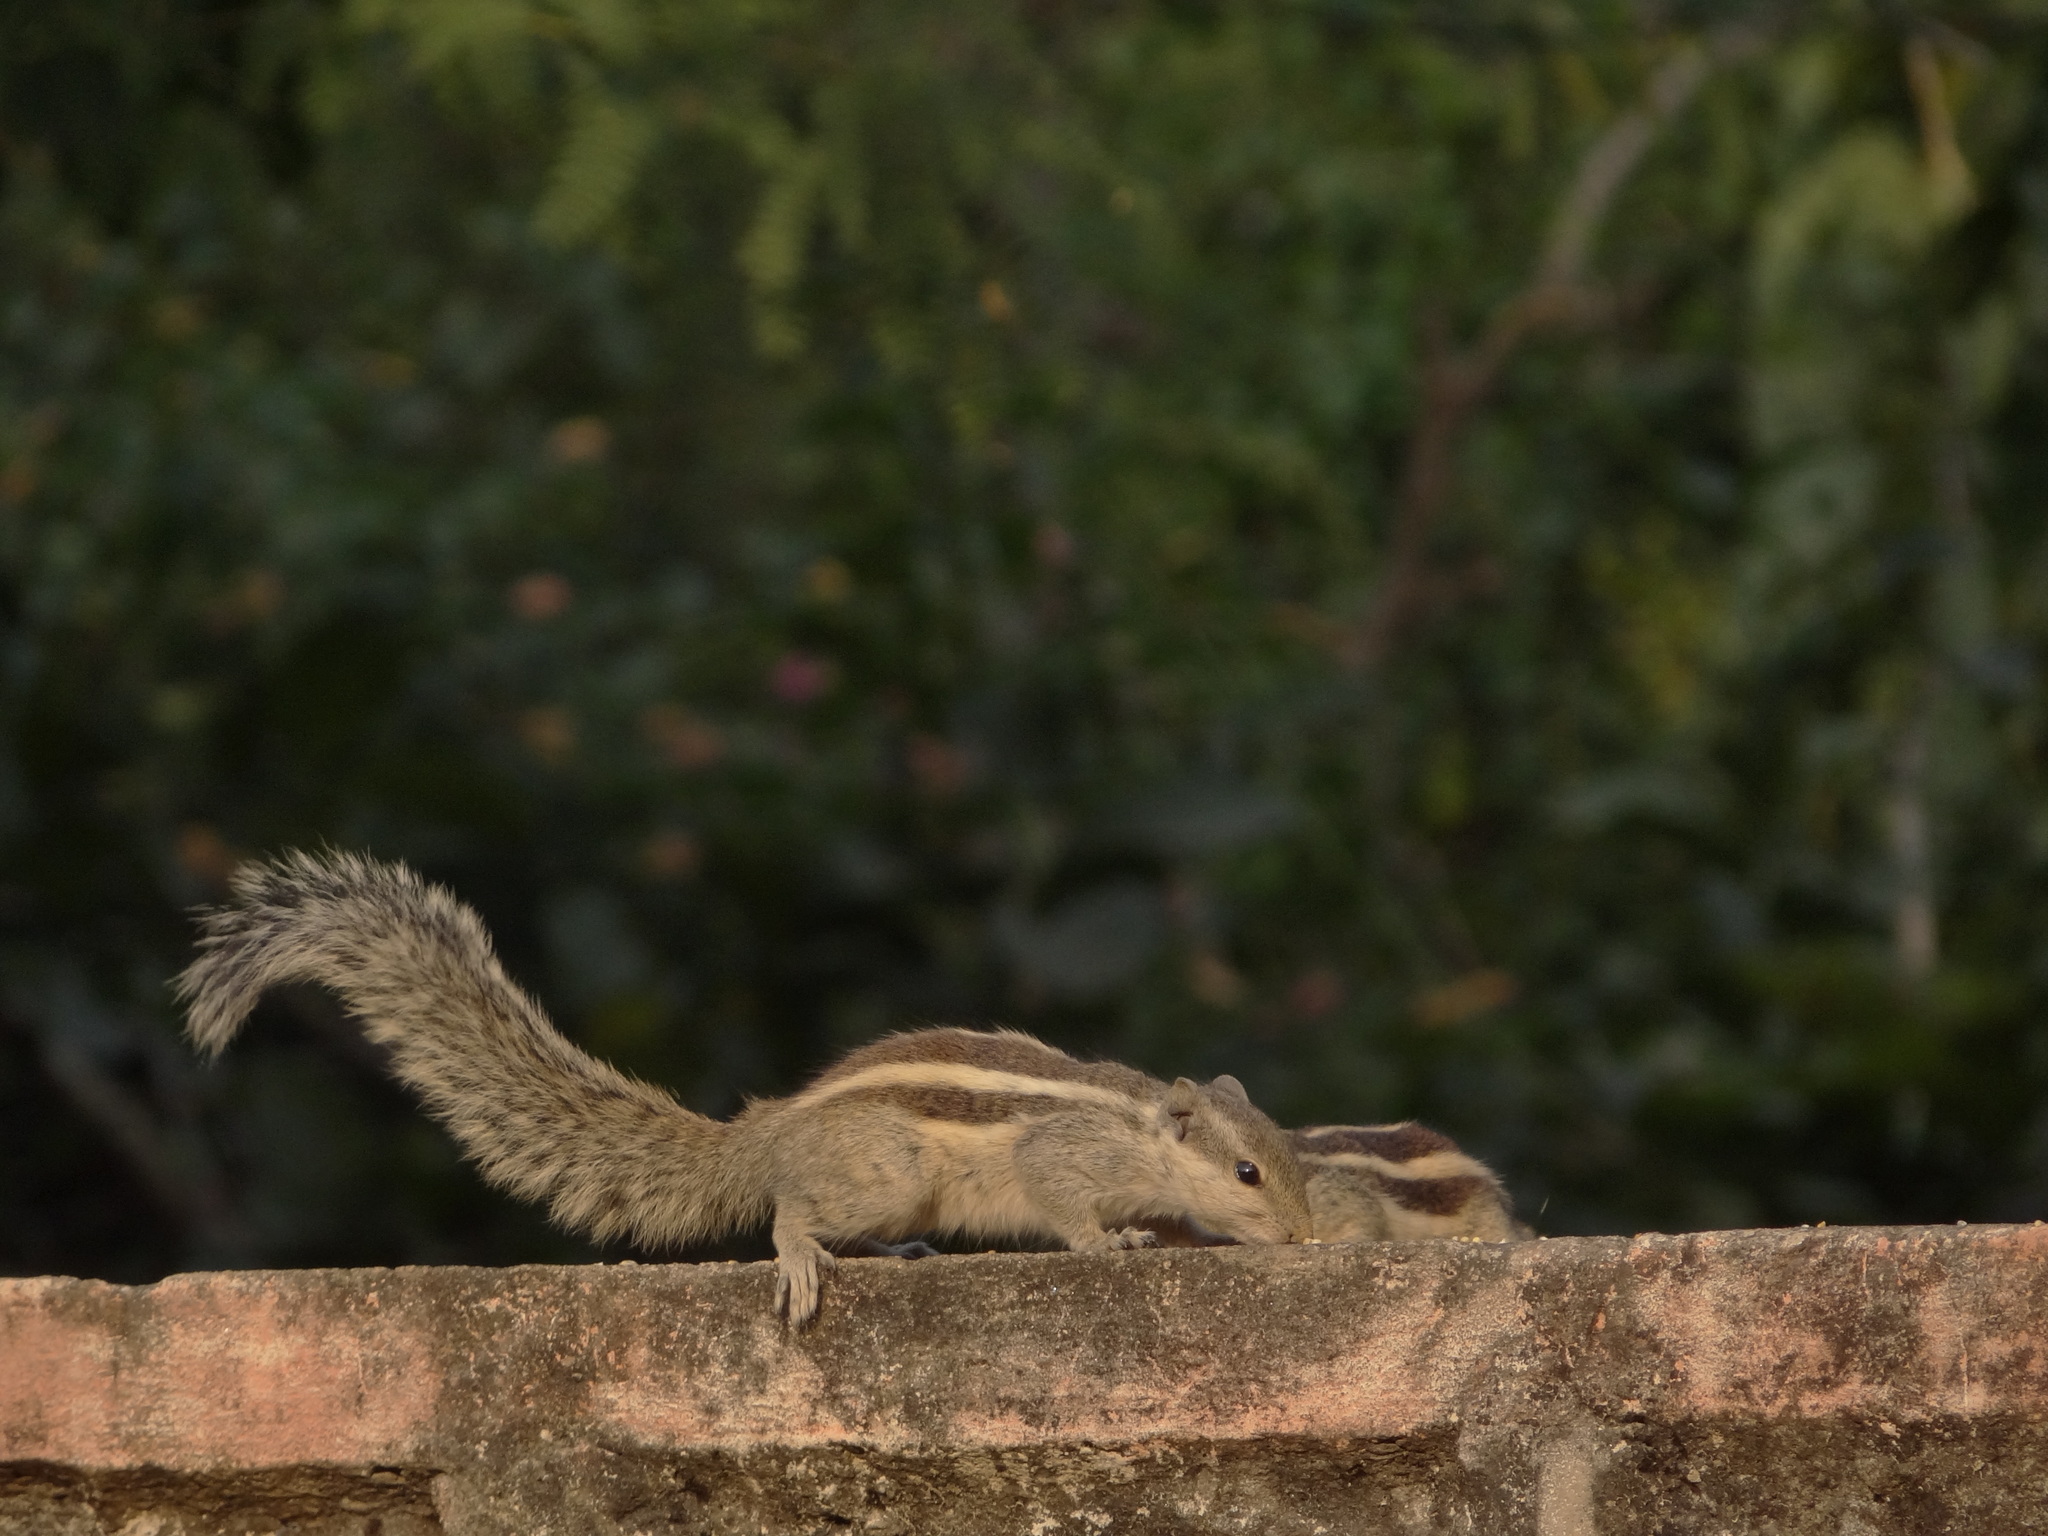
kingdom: Animalia
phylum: Chordata
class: Mammalia
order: Rodentia
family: Sciuridae
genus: Funambulus
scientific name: Funambulus pennantii
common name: Northern palm squirrel
